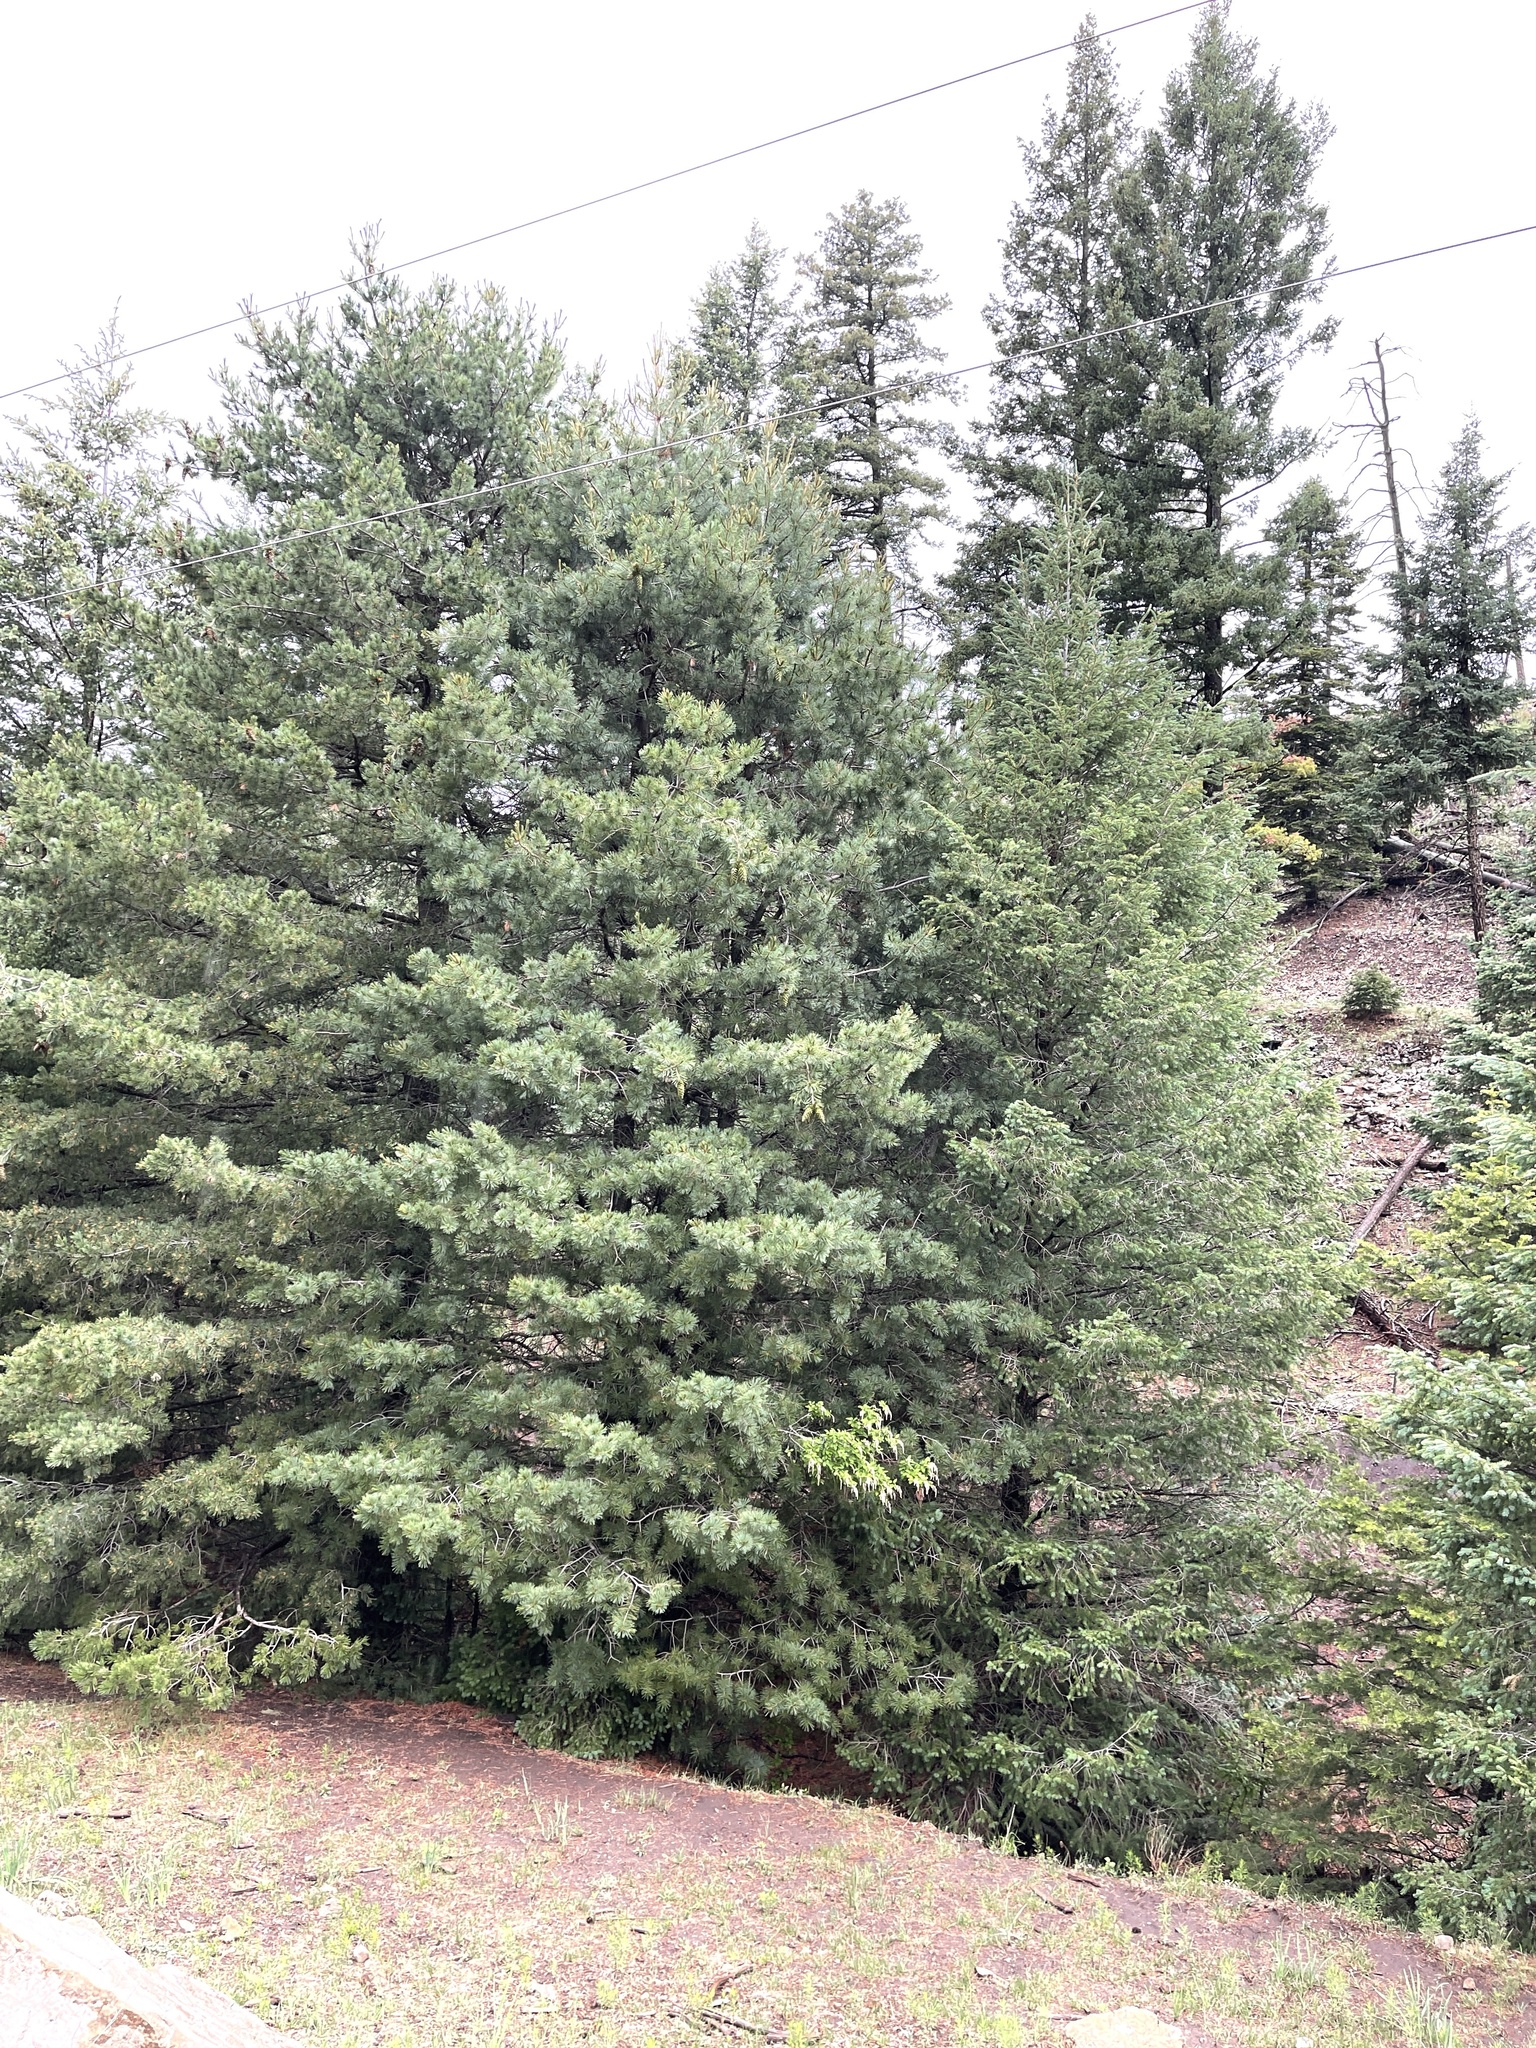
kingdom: Plantae
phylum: Tracheophyta
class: Pinopsida
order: Pinales
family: Pinaceae
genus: Pinus
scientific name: Pinus strobiformis
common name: Southwestern white pine
